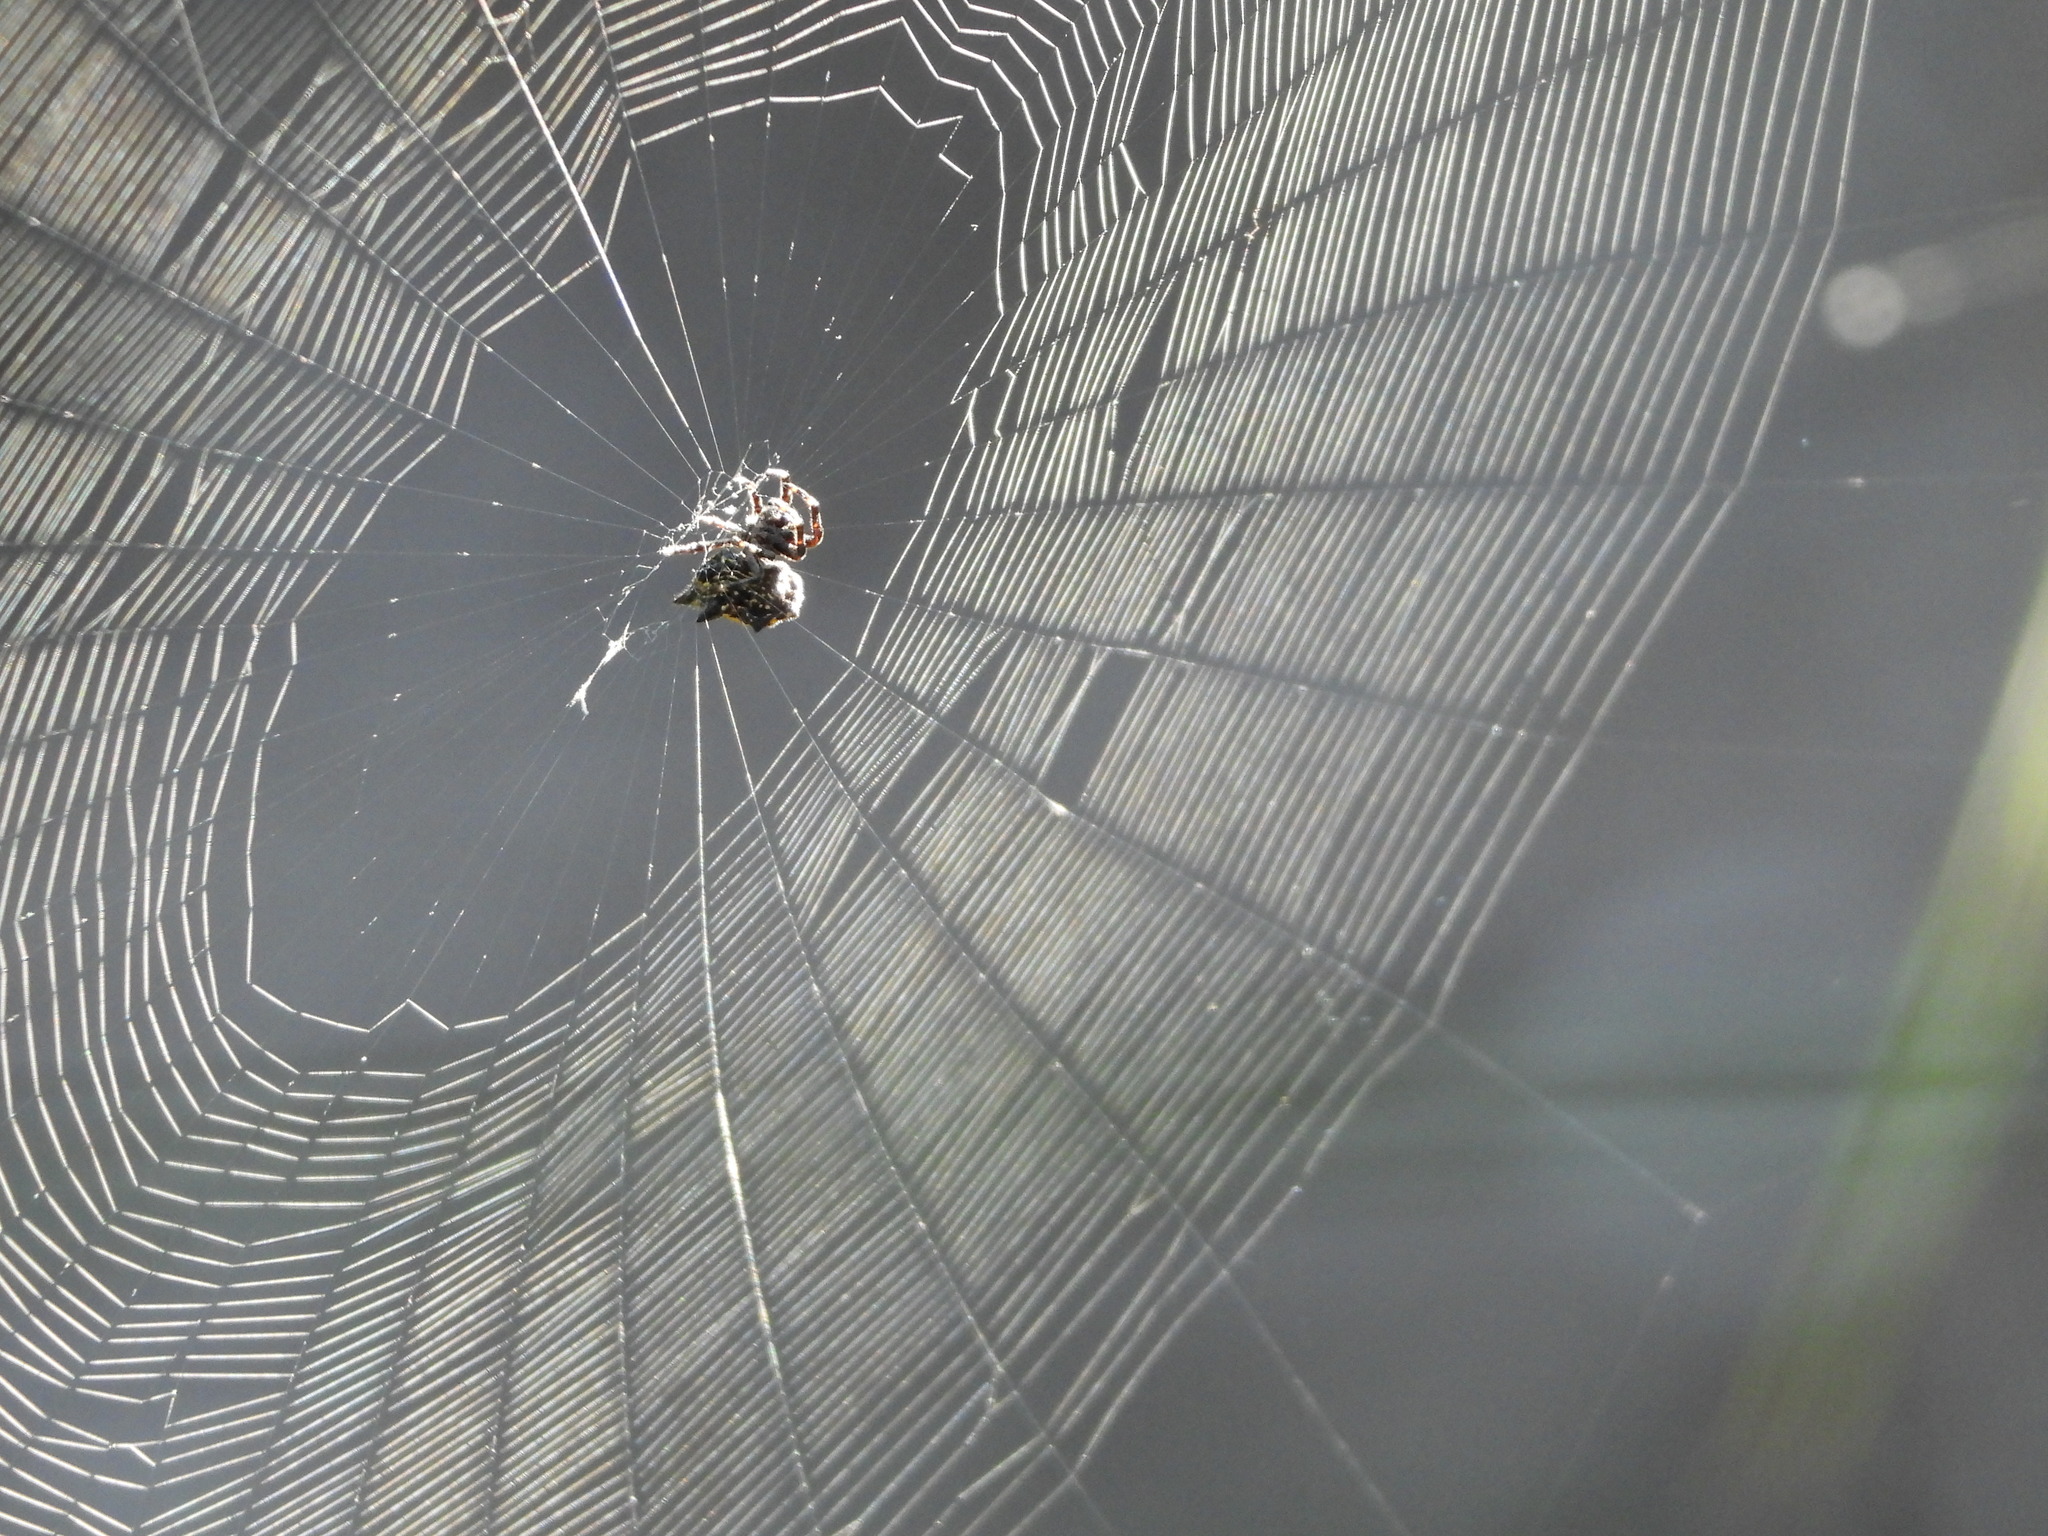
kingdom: Animalia
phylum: Arthropoda
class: Arachnida
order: Araneae
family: Araneidae
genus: Gasteracantha
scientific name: Gasteracantha cancriformis
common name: Orb weavers
